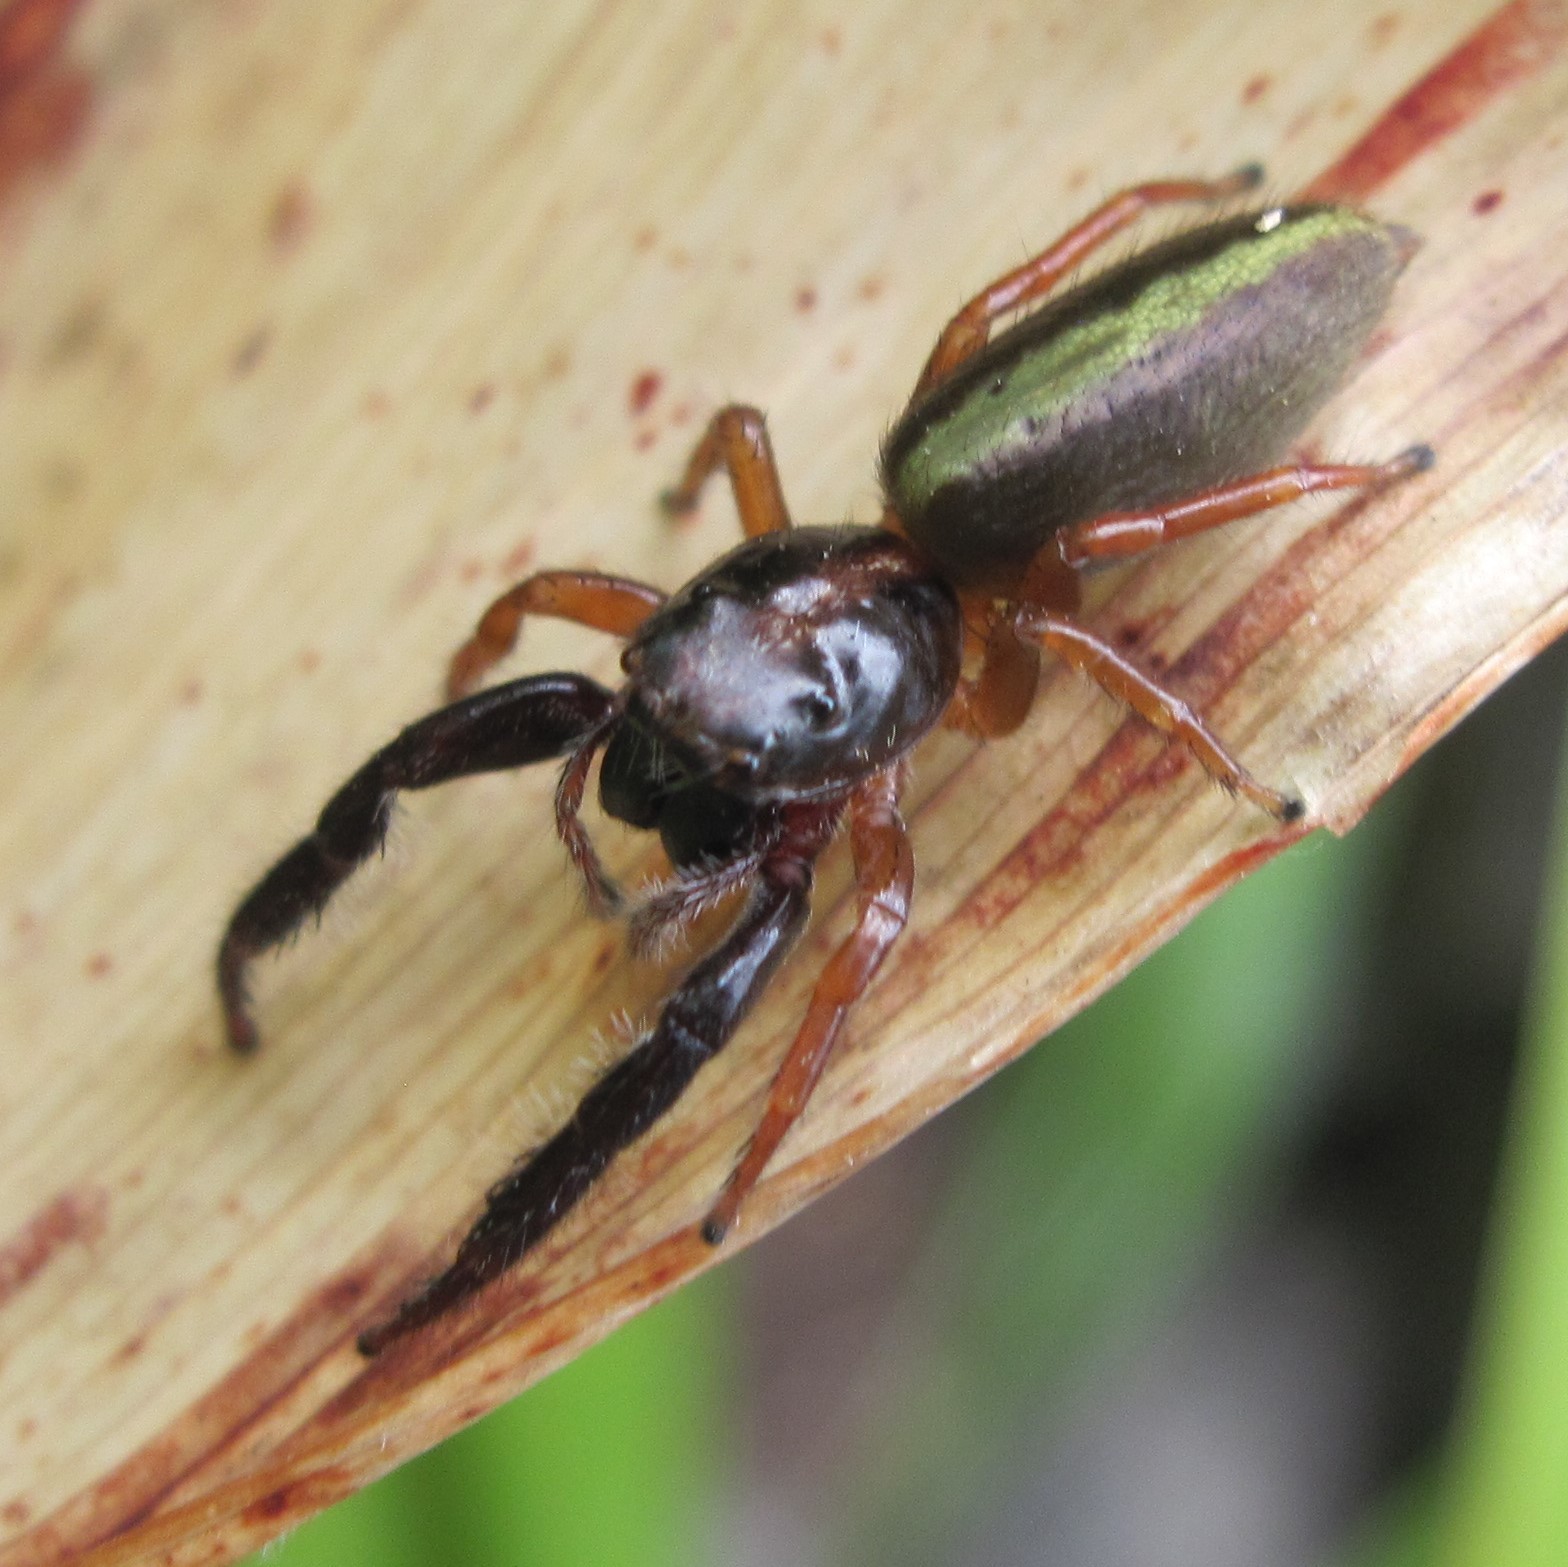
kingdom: Animalia
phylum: Arthropoda
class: Arachnida
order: Araneae
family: Salticidae
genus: Trite
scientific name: Trite planiceps
